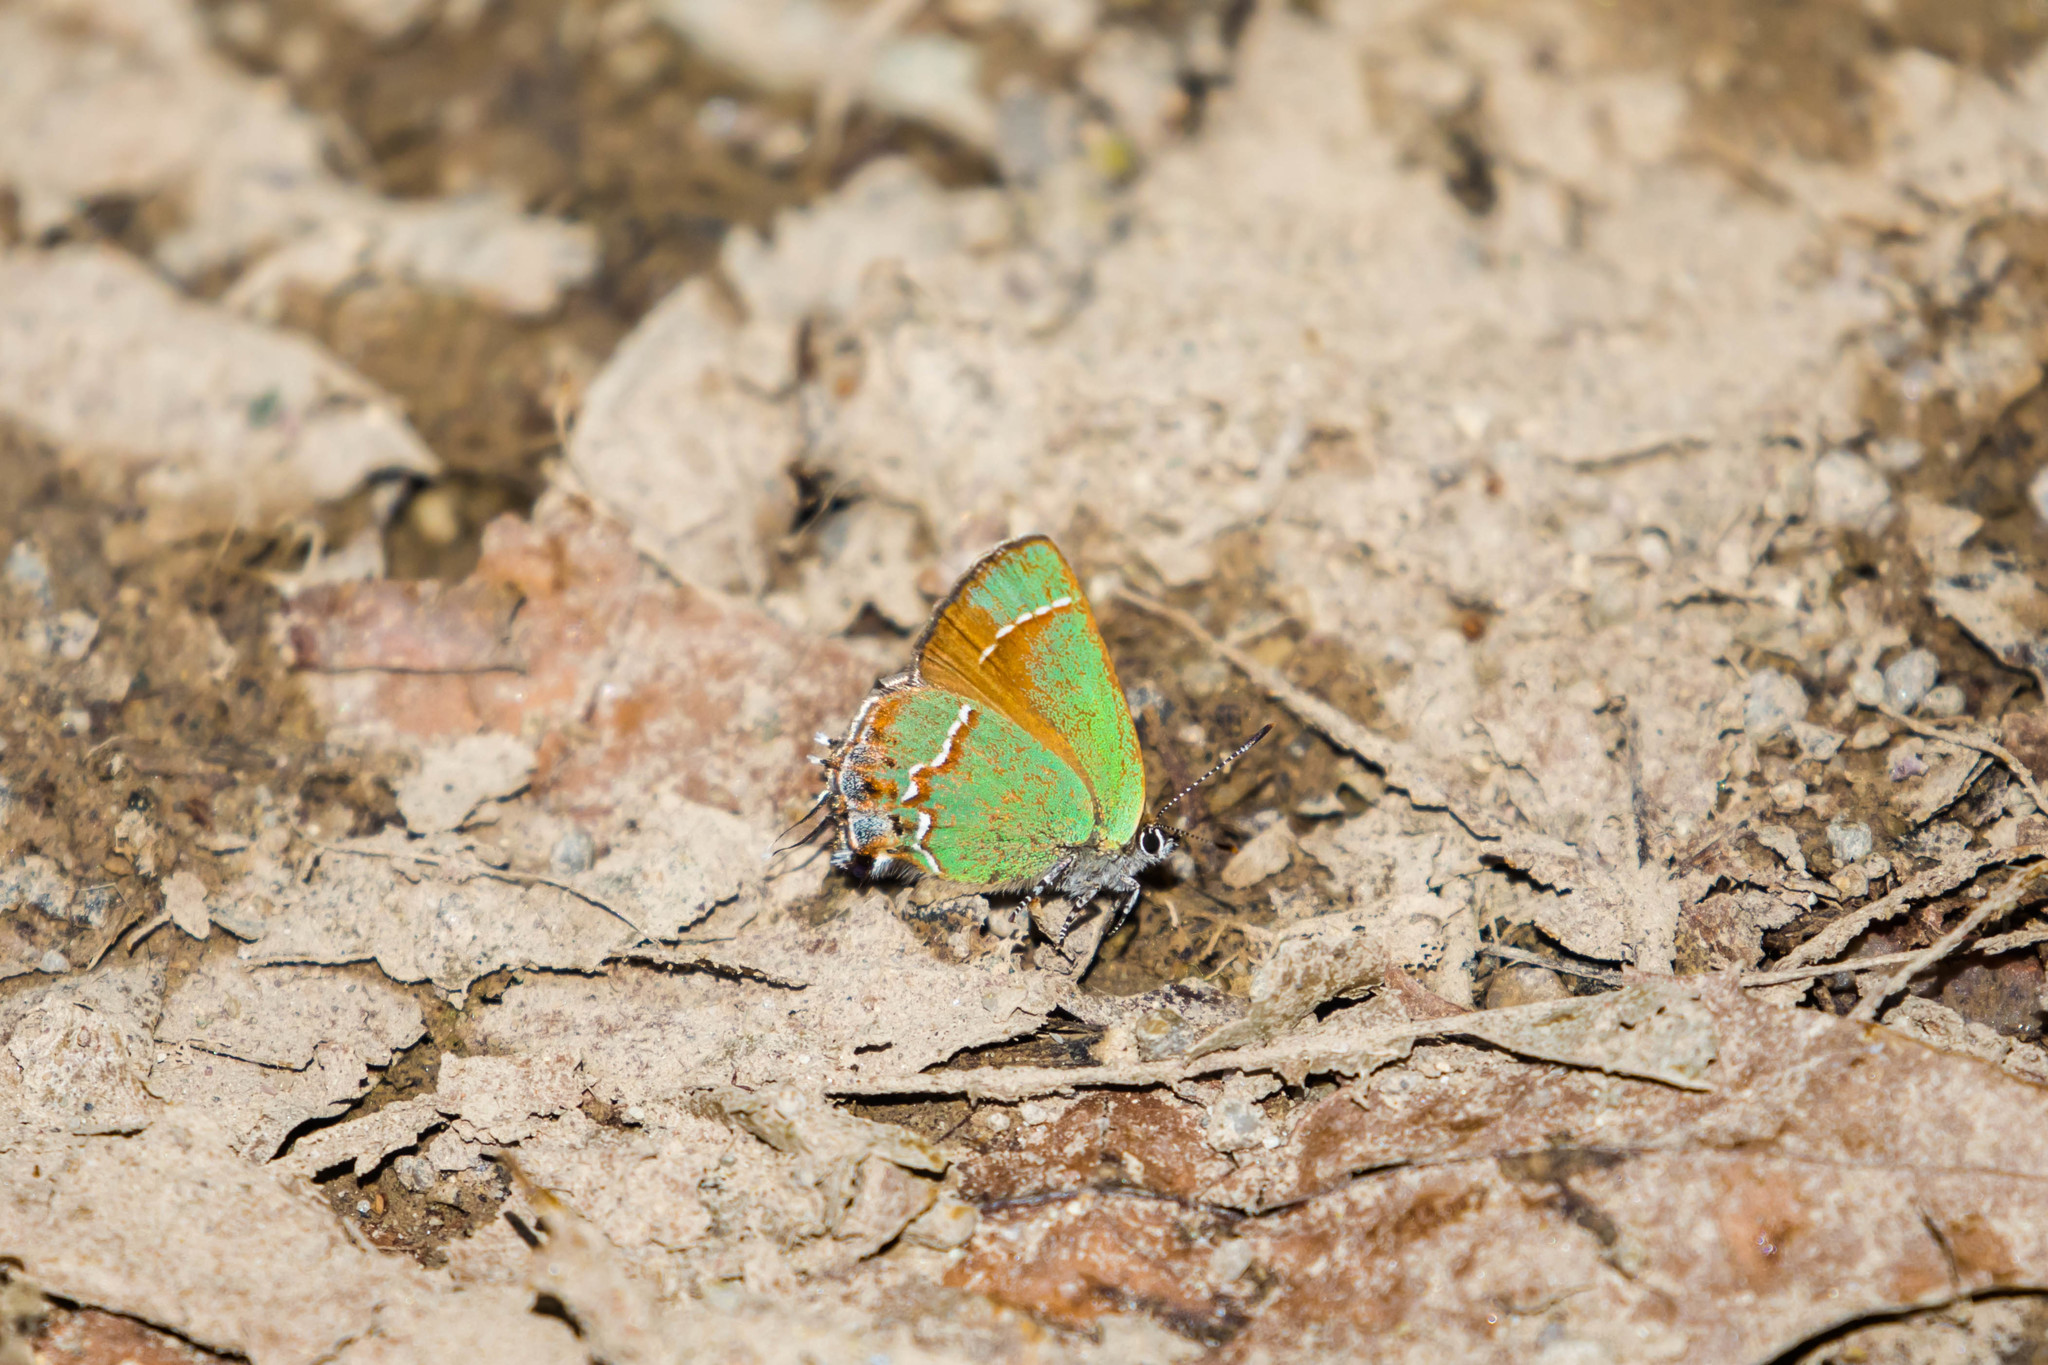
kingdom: Animalia
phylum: Arthropoda
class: Insecta
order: Lepidoptera
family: Lycaenidae
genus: Mitoura
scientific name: Mitoura gryneus
